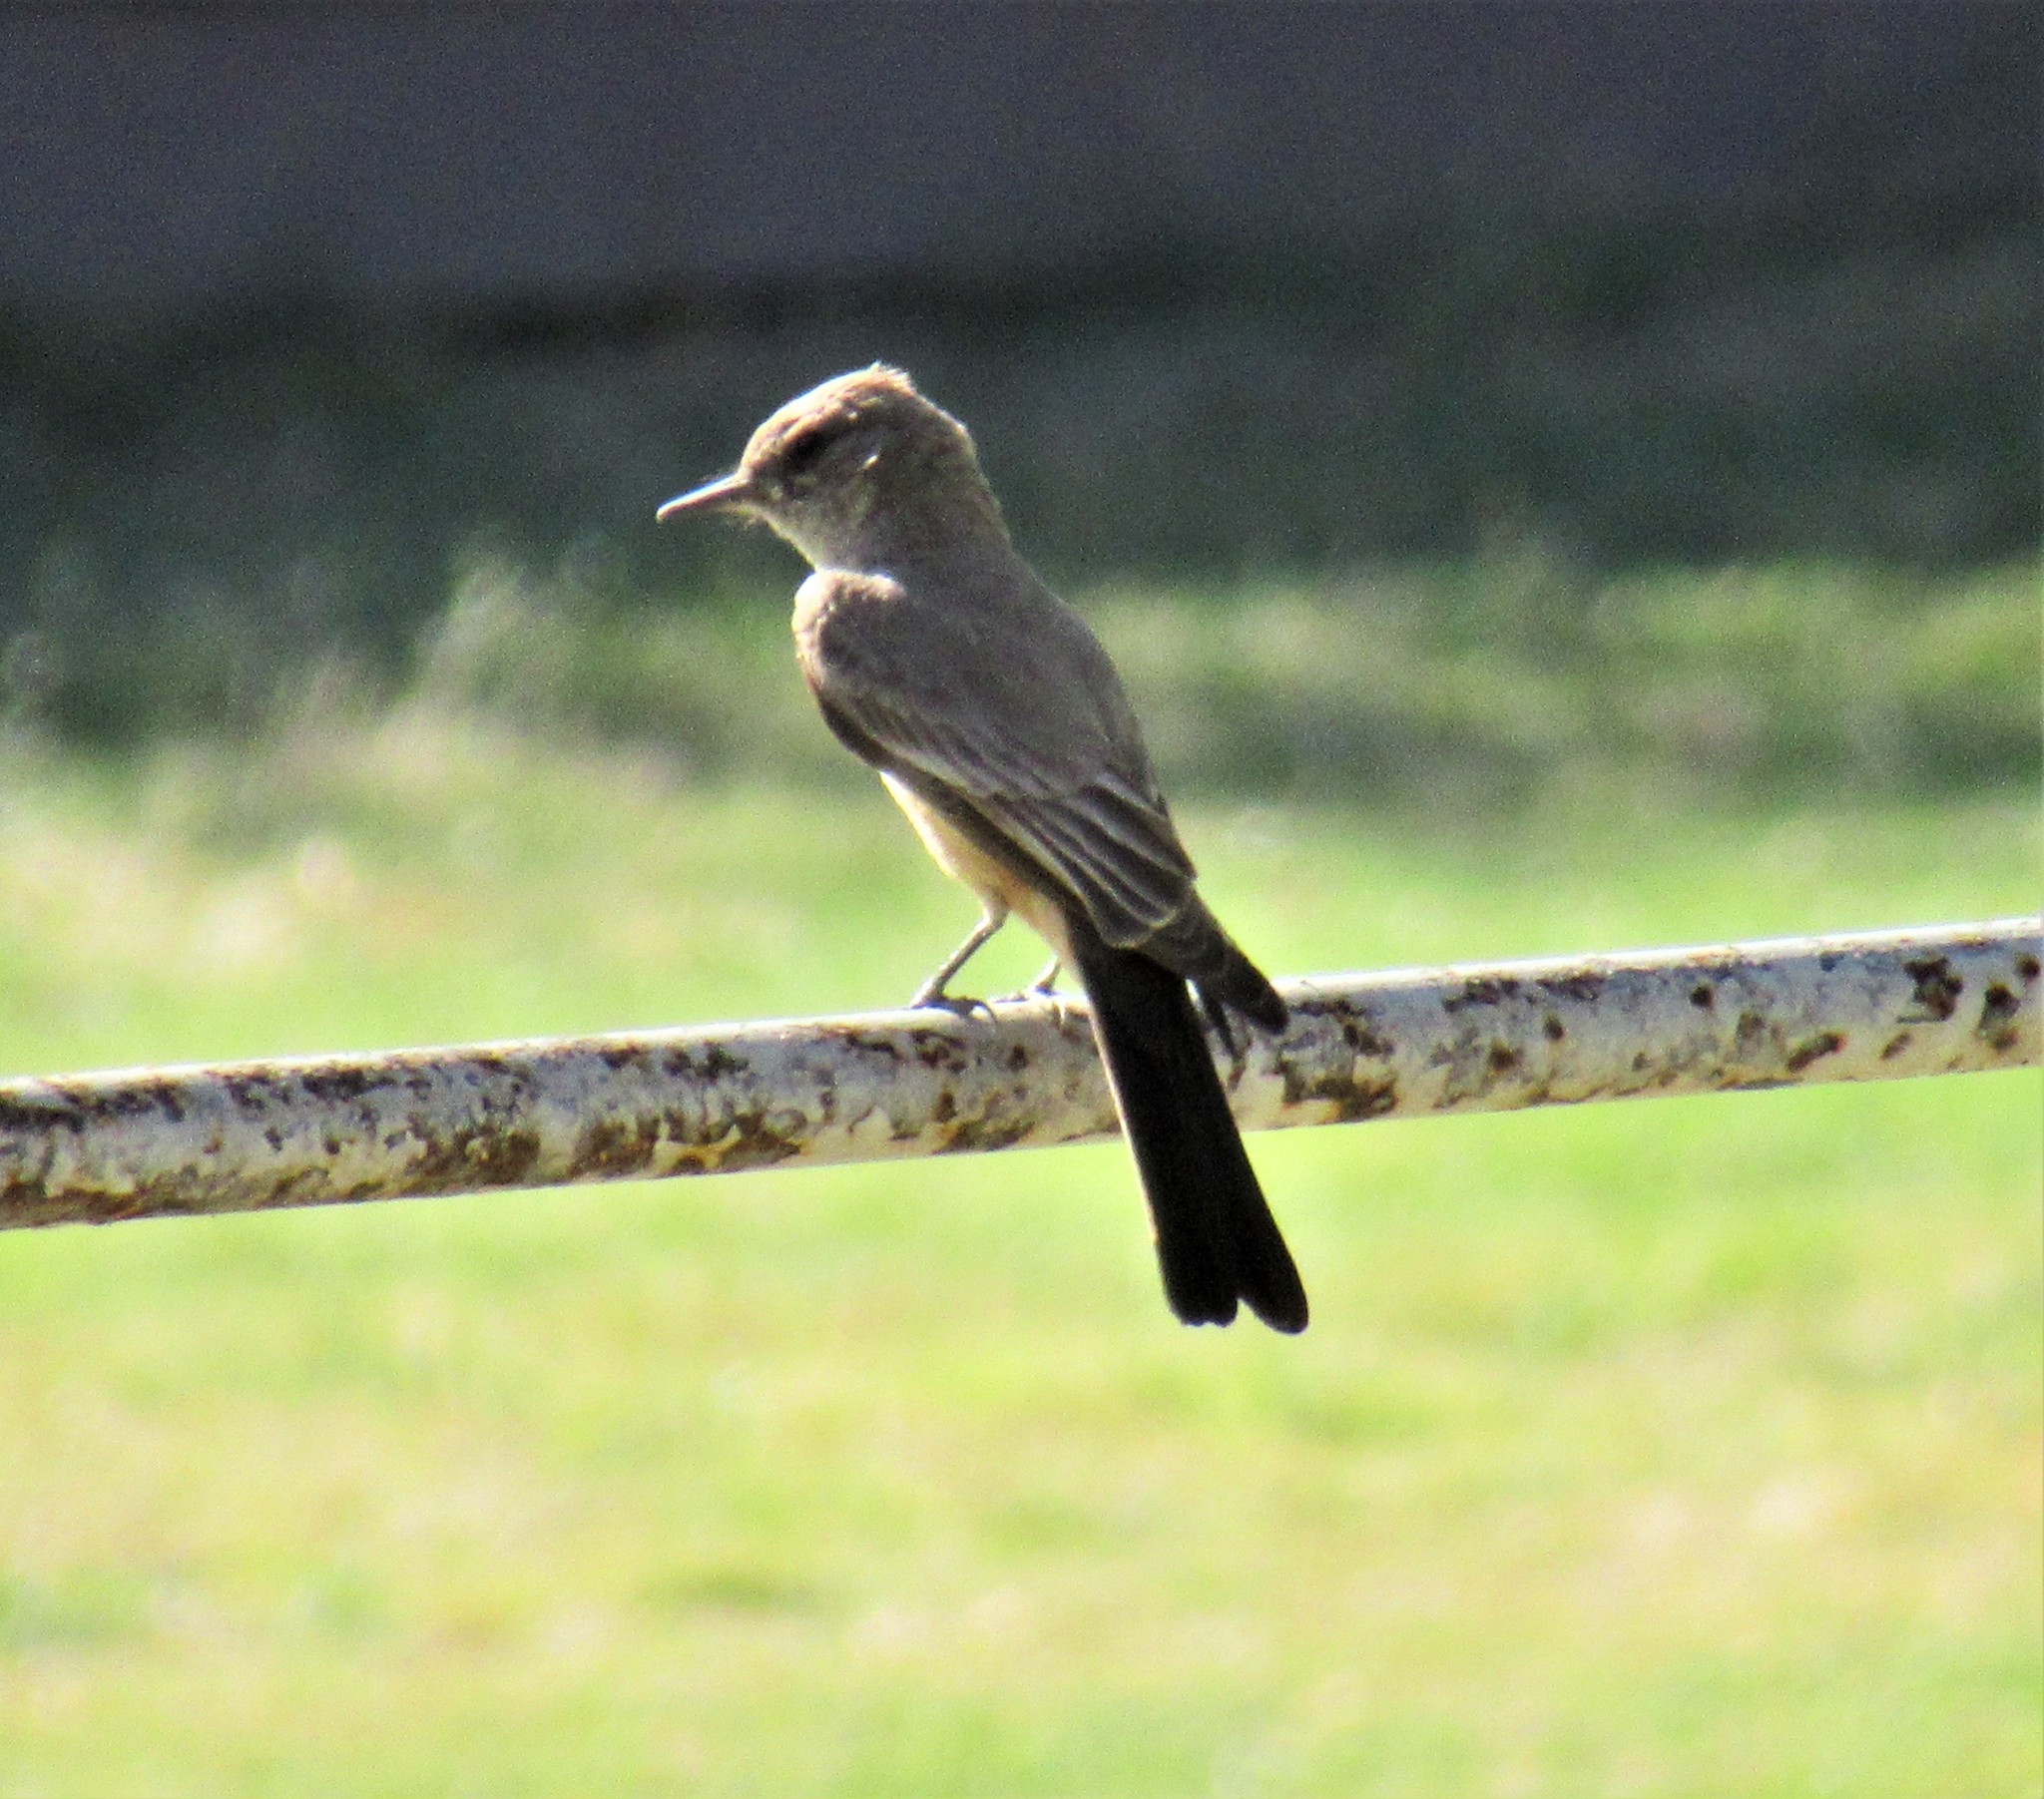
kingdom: Animalia
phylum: Chordata
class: Aves
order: Passeriformes
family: Tyrannidae
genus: Sayornis
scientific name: Sayornis saya
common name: Say's phoebe
